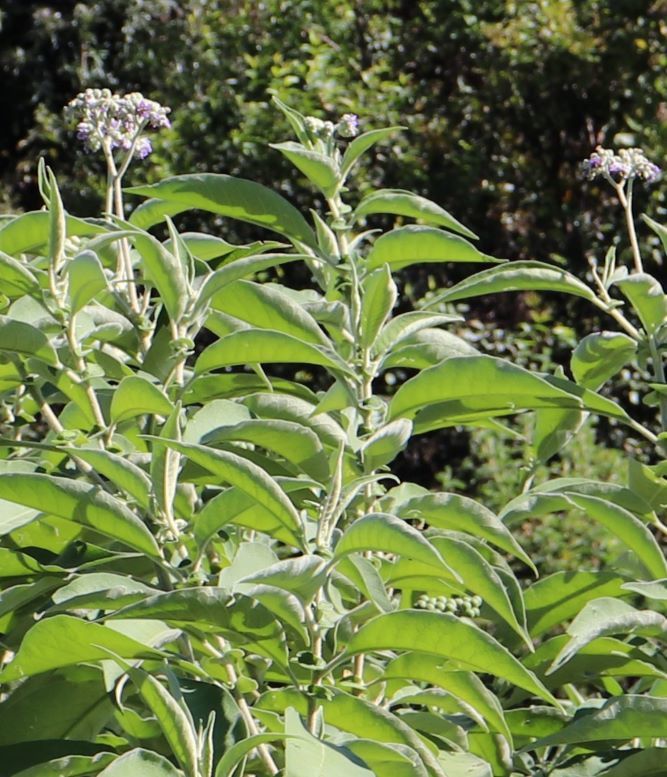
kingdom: Plantae
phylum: Tracheophyta
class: Magnoliopsida
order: Solanales
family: Solanaceae
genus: Solanum
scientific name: Solanum mauritianum
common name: Earleaf nightshade
